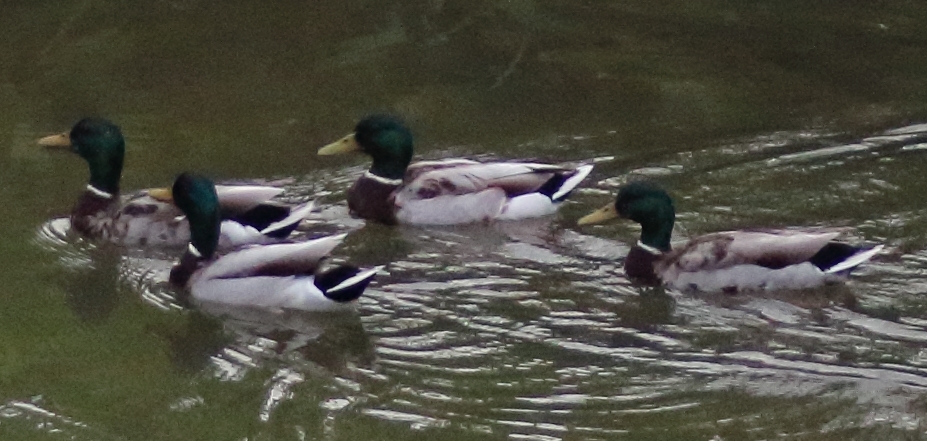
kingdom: Animalia
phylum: Chordata
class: Aves
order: Anseriformes
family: Anatidae
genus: Anas
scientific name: Anas platyrhynchos
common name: Mallard
